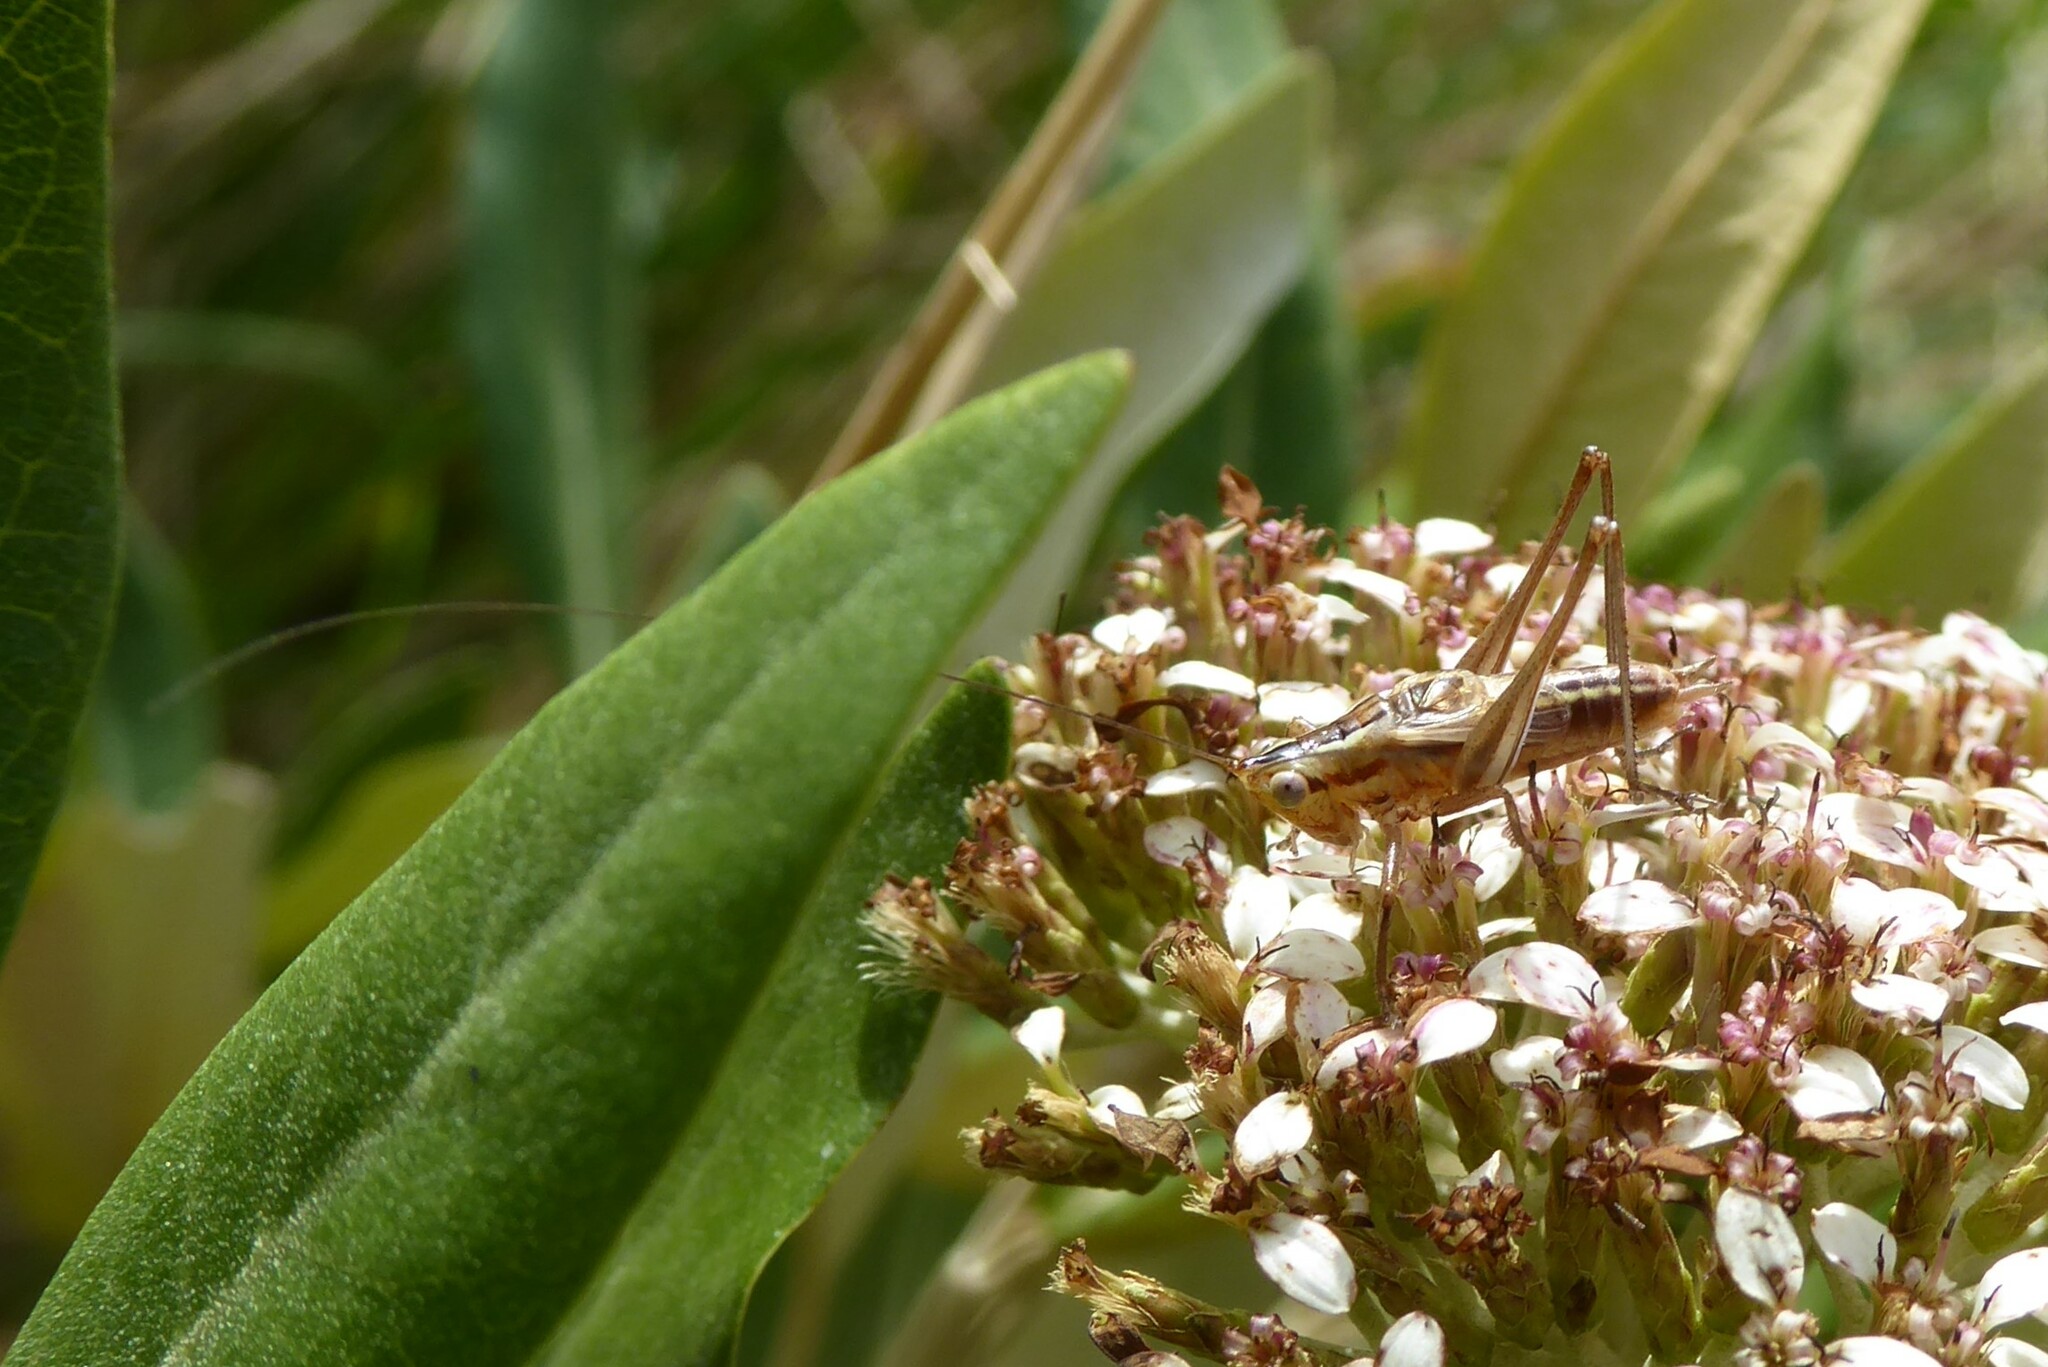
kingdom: Animalia
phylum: Arthropoda
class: Insecta
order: Orthoptera
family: Tettigoniidae
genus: Conocephalus
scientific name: Conocephalus bilineatus
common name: Small meadow katydid
